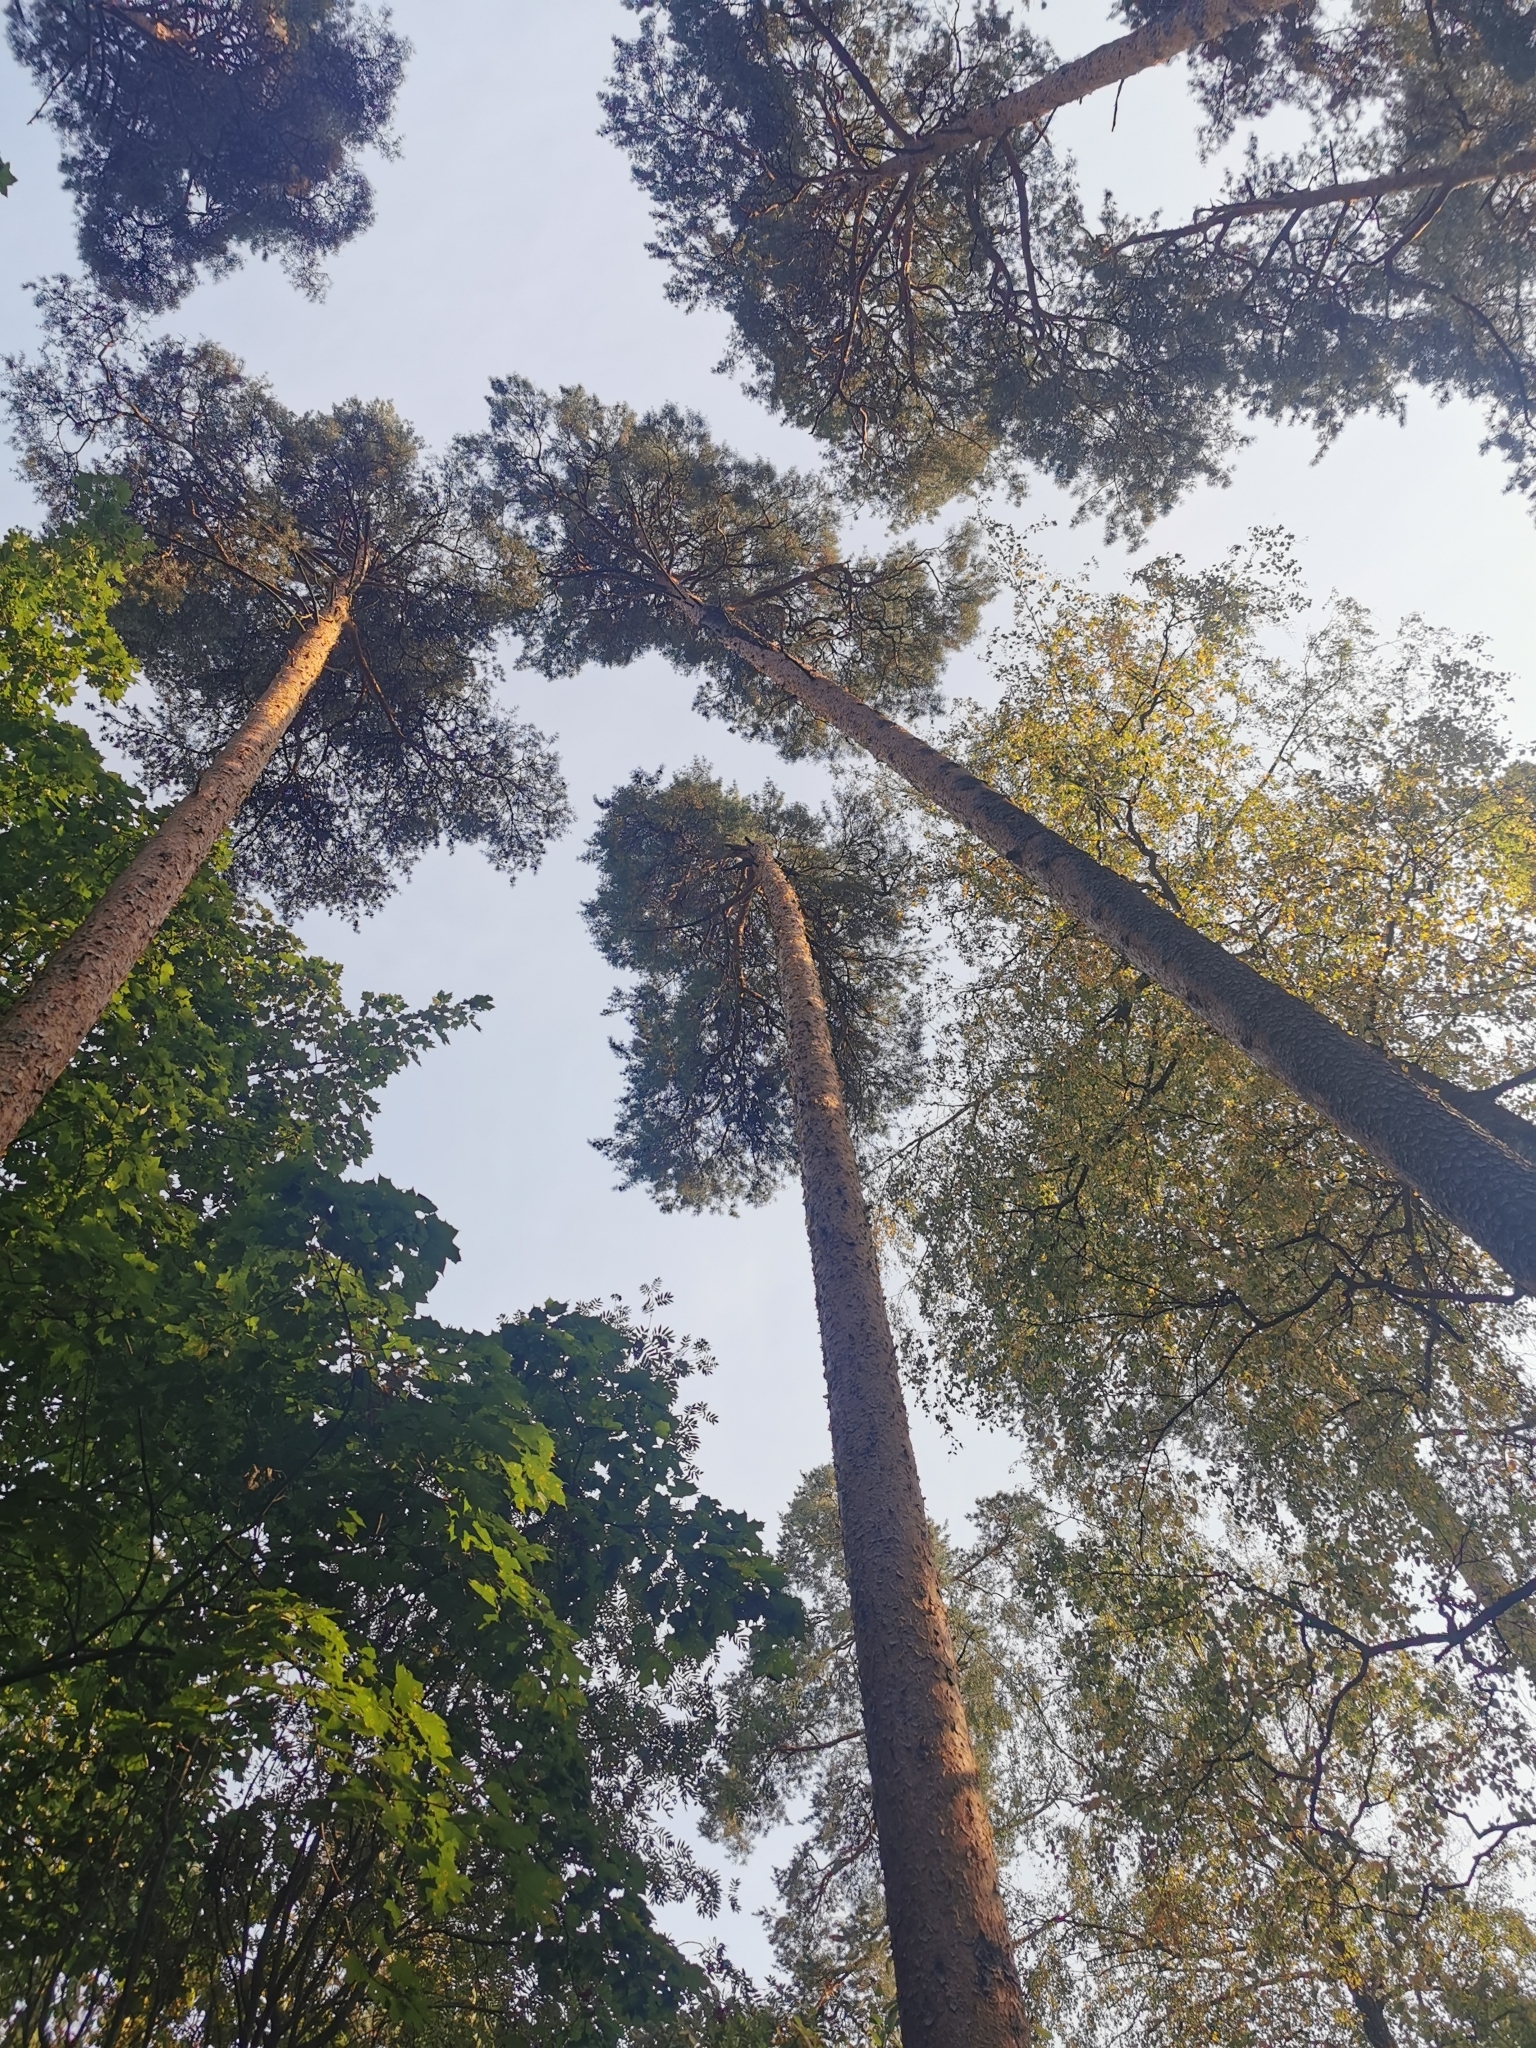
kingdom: Plantae
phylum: Tracheophyta
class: Pinopsida
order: Pinales
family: Pinaceae
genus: Pinus
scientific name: Pinus sylvestris
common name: Scots pine
